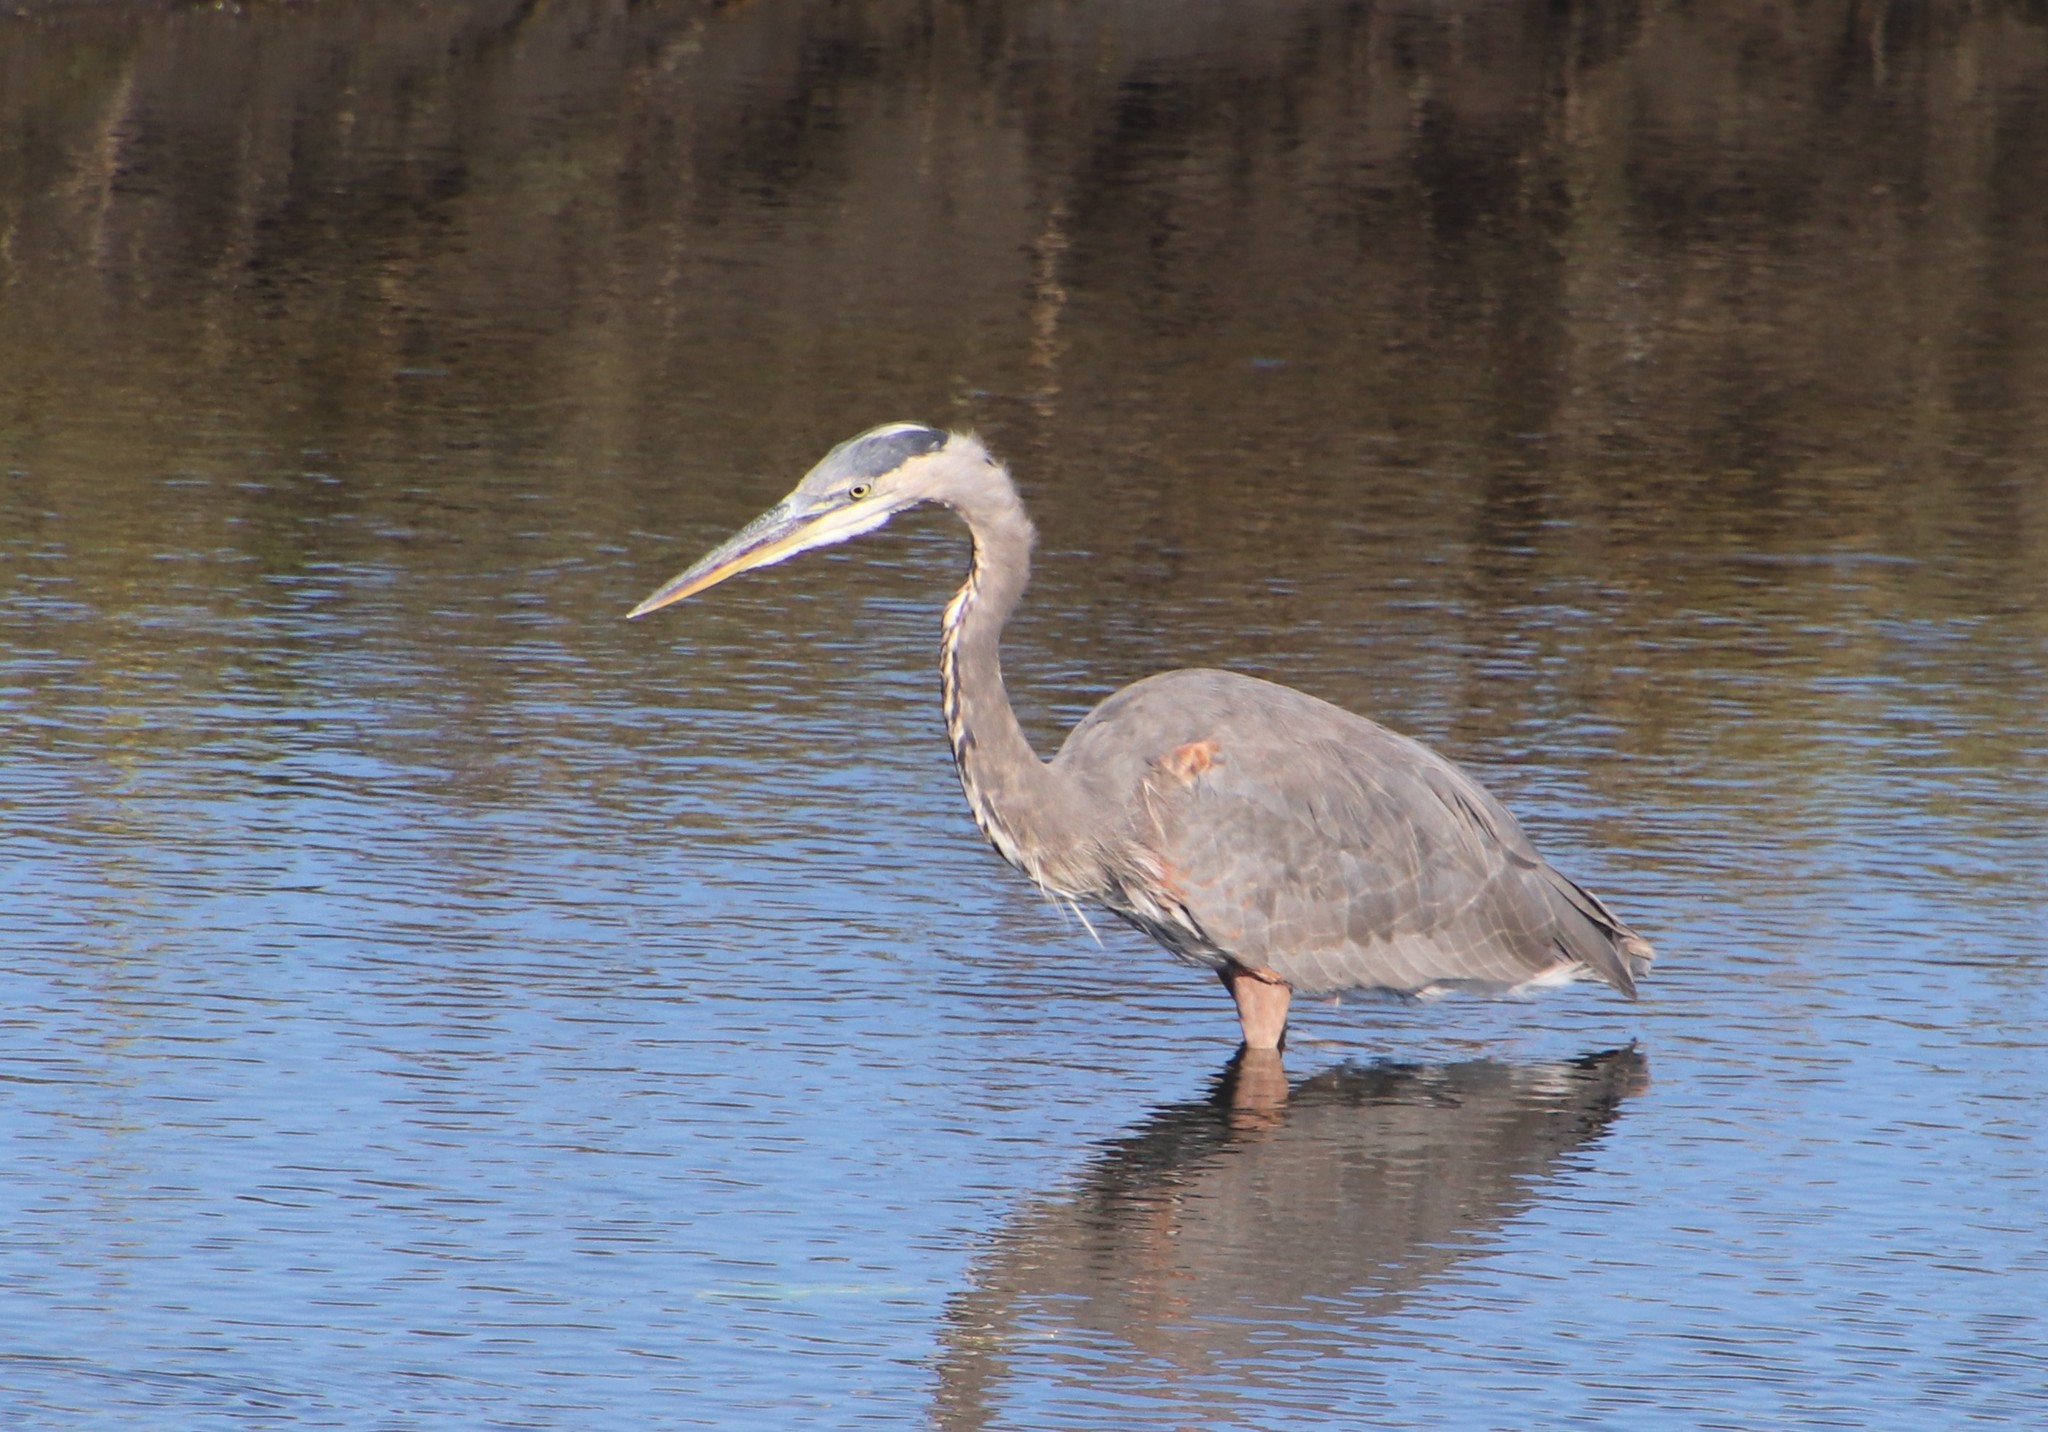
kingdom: Animalia
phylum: Chordata
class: Aves
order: Pelecaniformes
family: Ardeidae
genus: Ardea
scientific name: Ardea herodias
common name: Great blue heron
